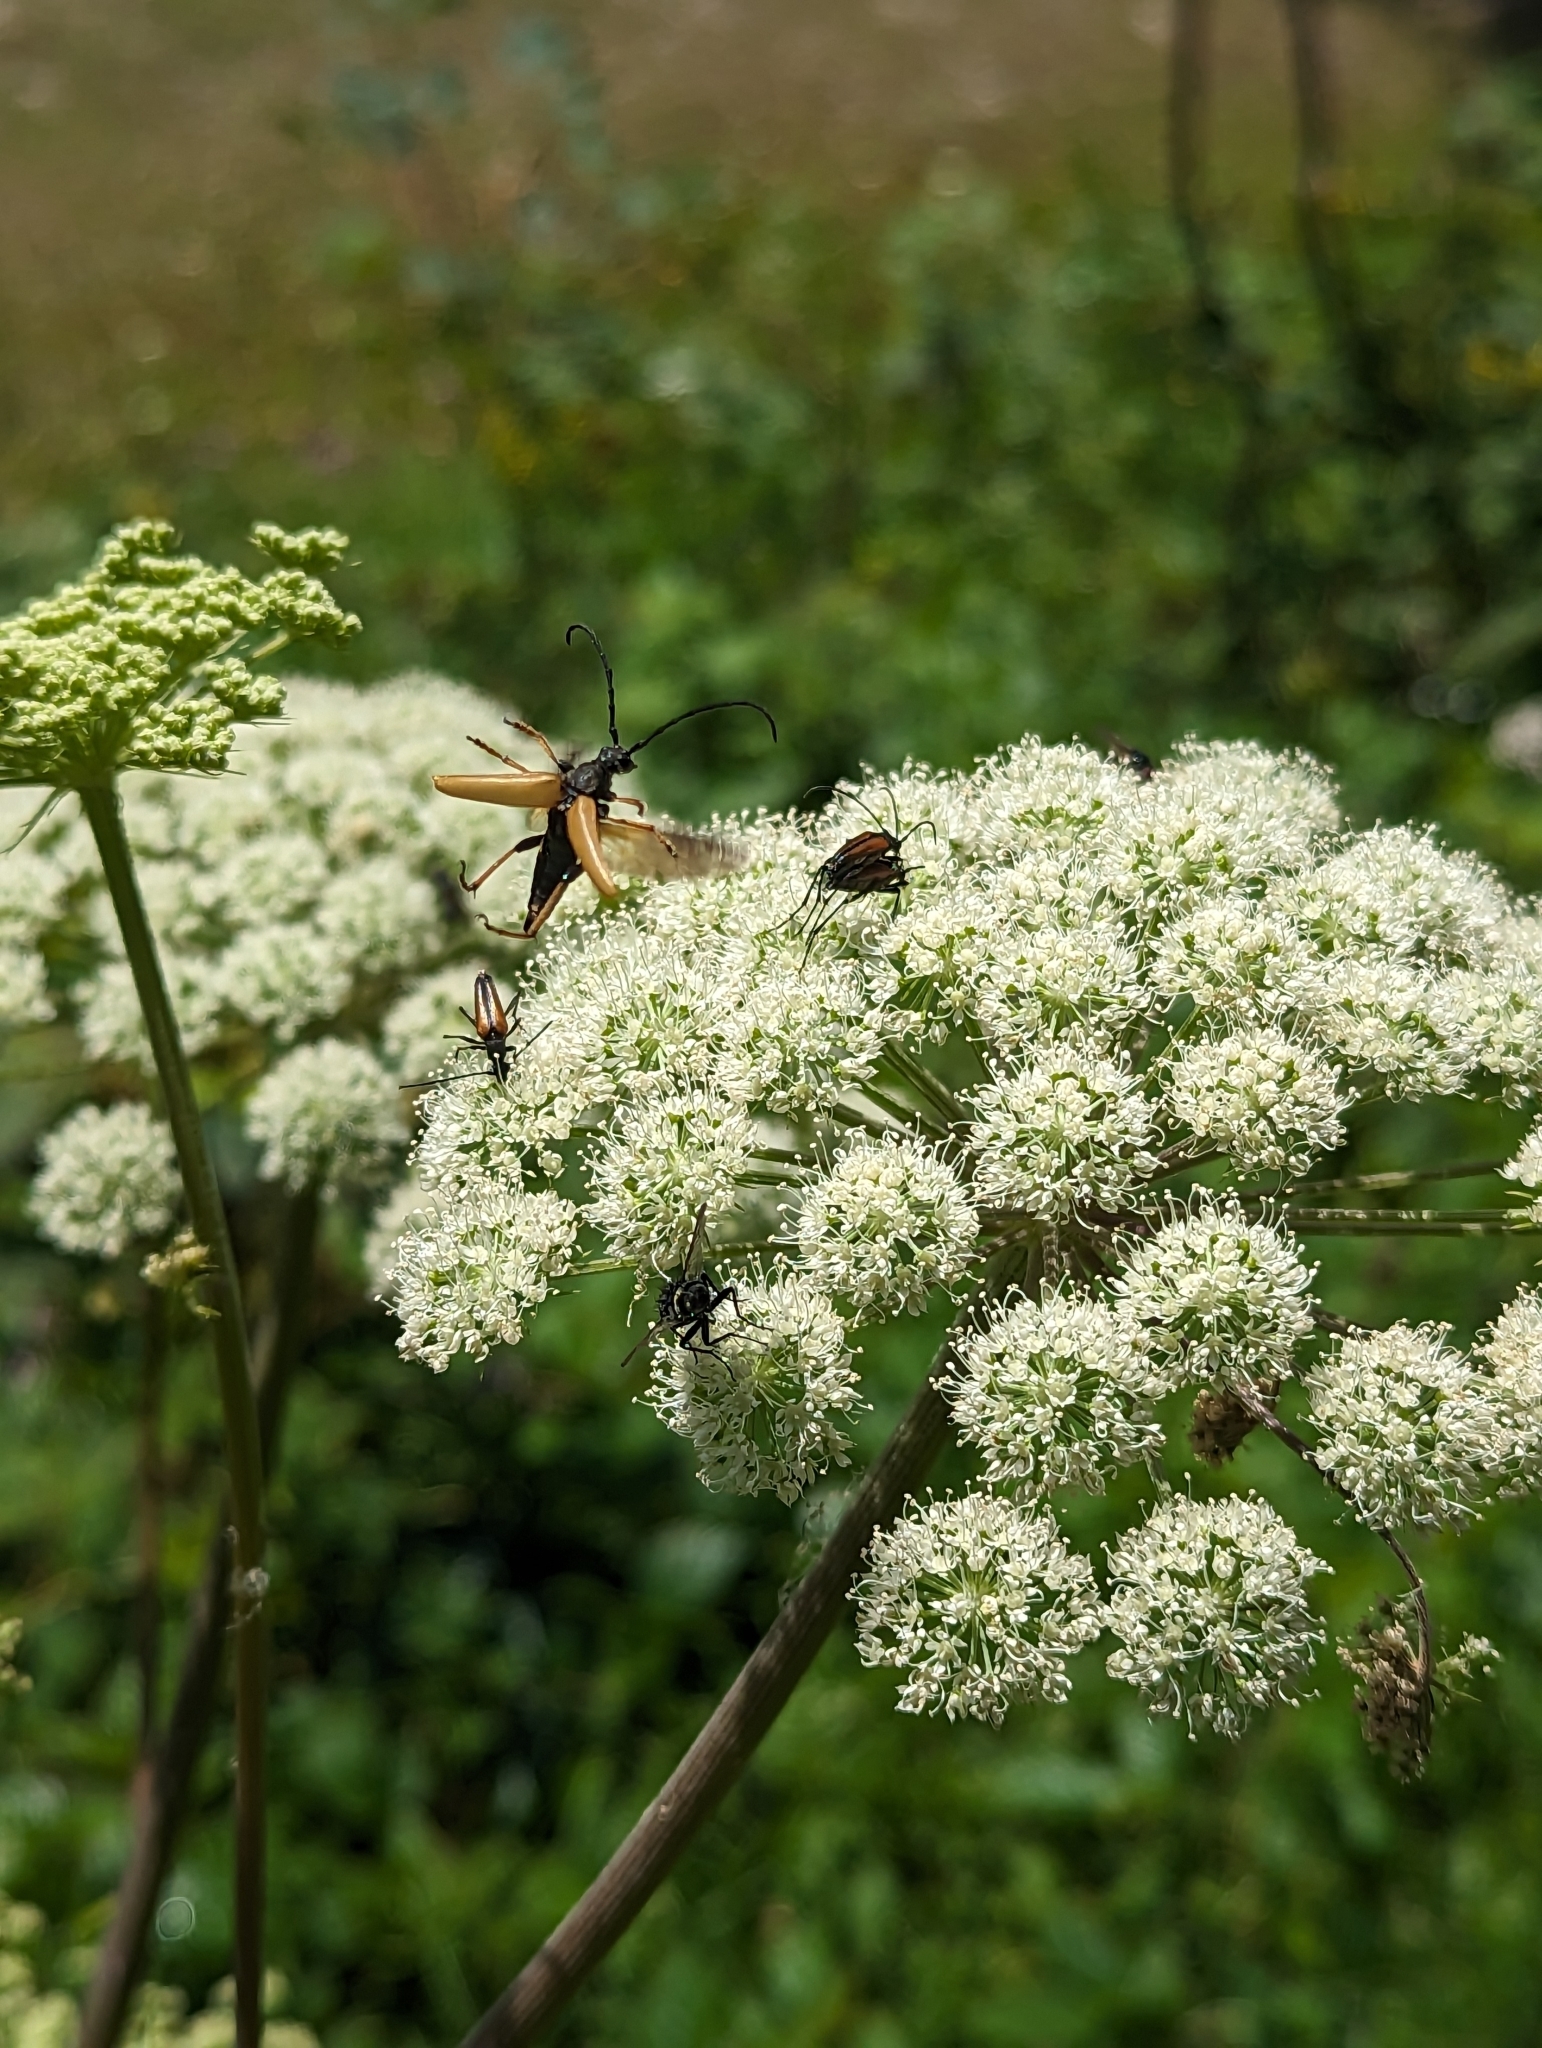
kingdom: Animalia
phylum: Arthropoda
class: Insecta
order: Coleoptera
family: Cerambycidae
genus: Stictoleptura
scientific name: Stictoleptura rubra
